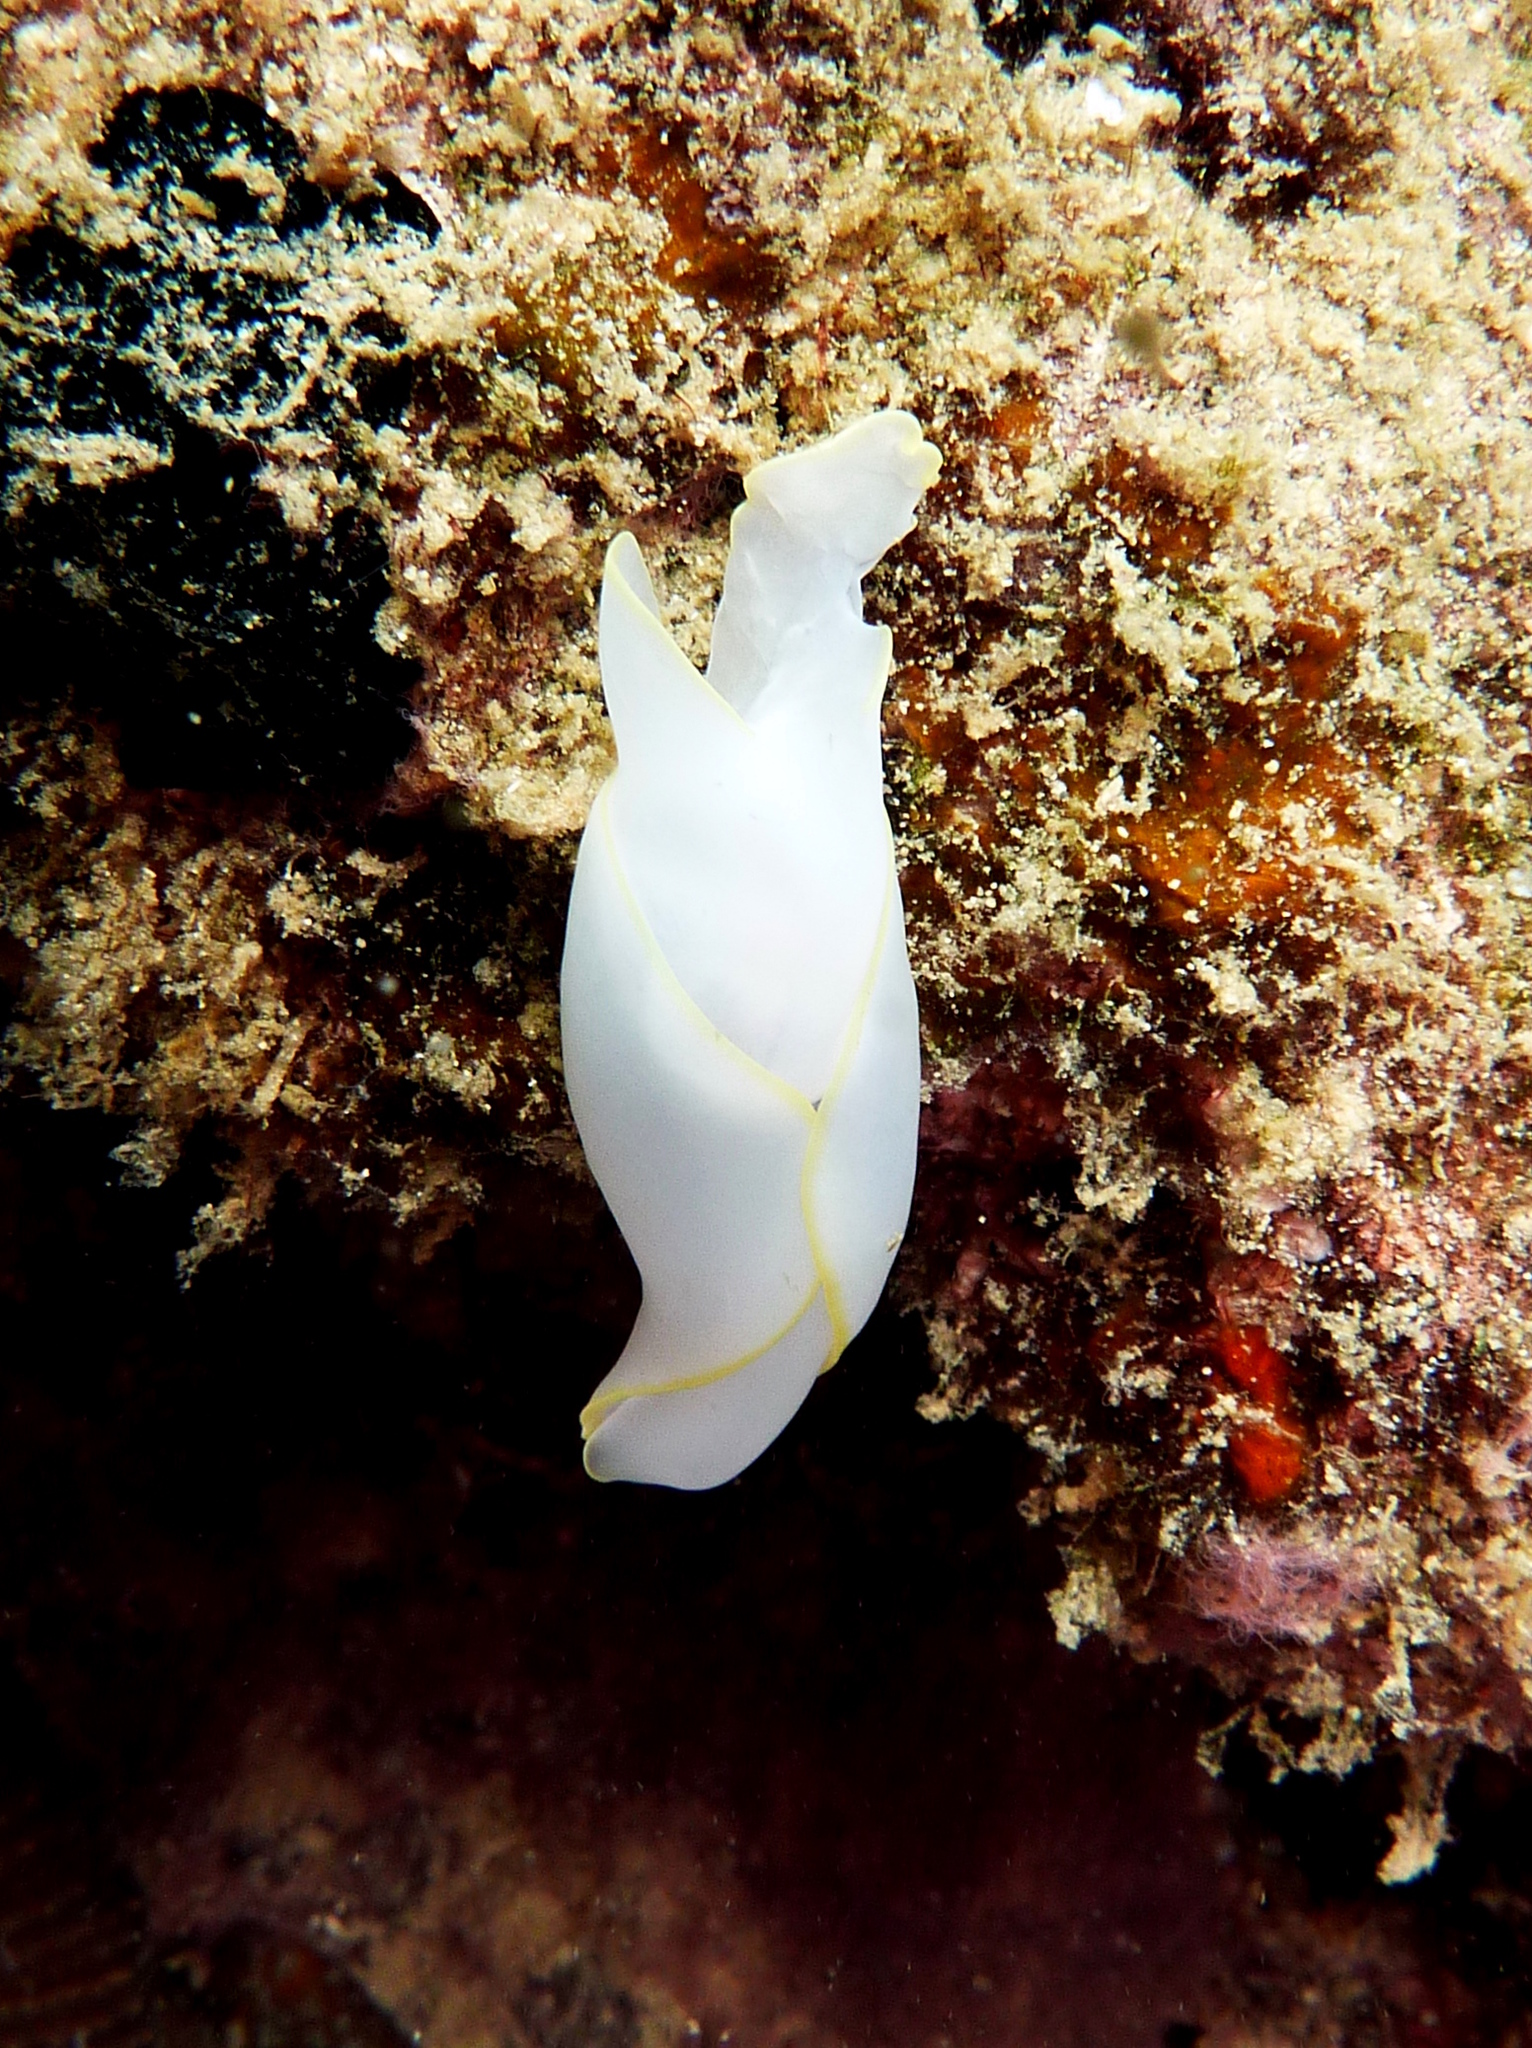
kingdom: Animalia
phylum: Mollusca
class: Gastropoda
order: Cephalaspidea
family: Aglajidae
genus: Chelidonura
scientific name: Chelidonura electra
